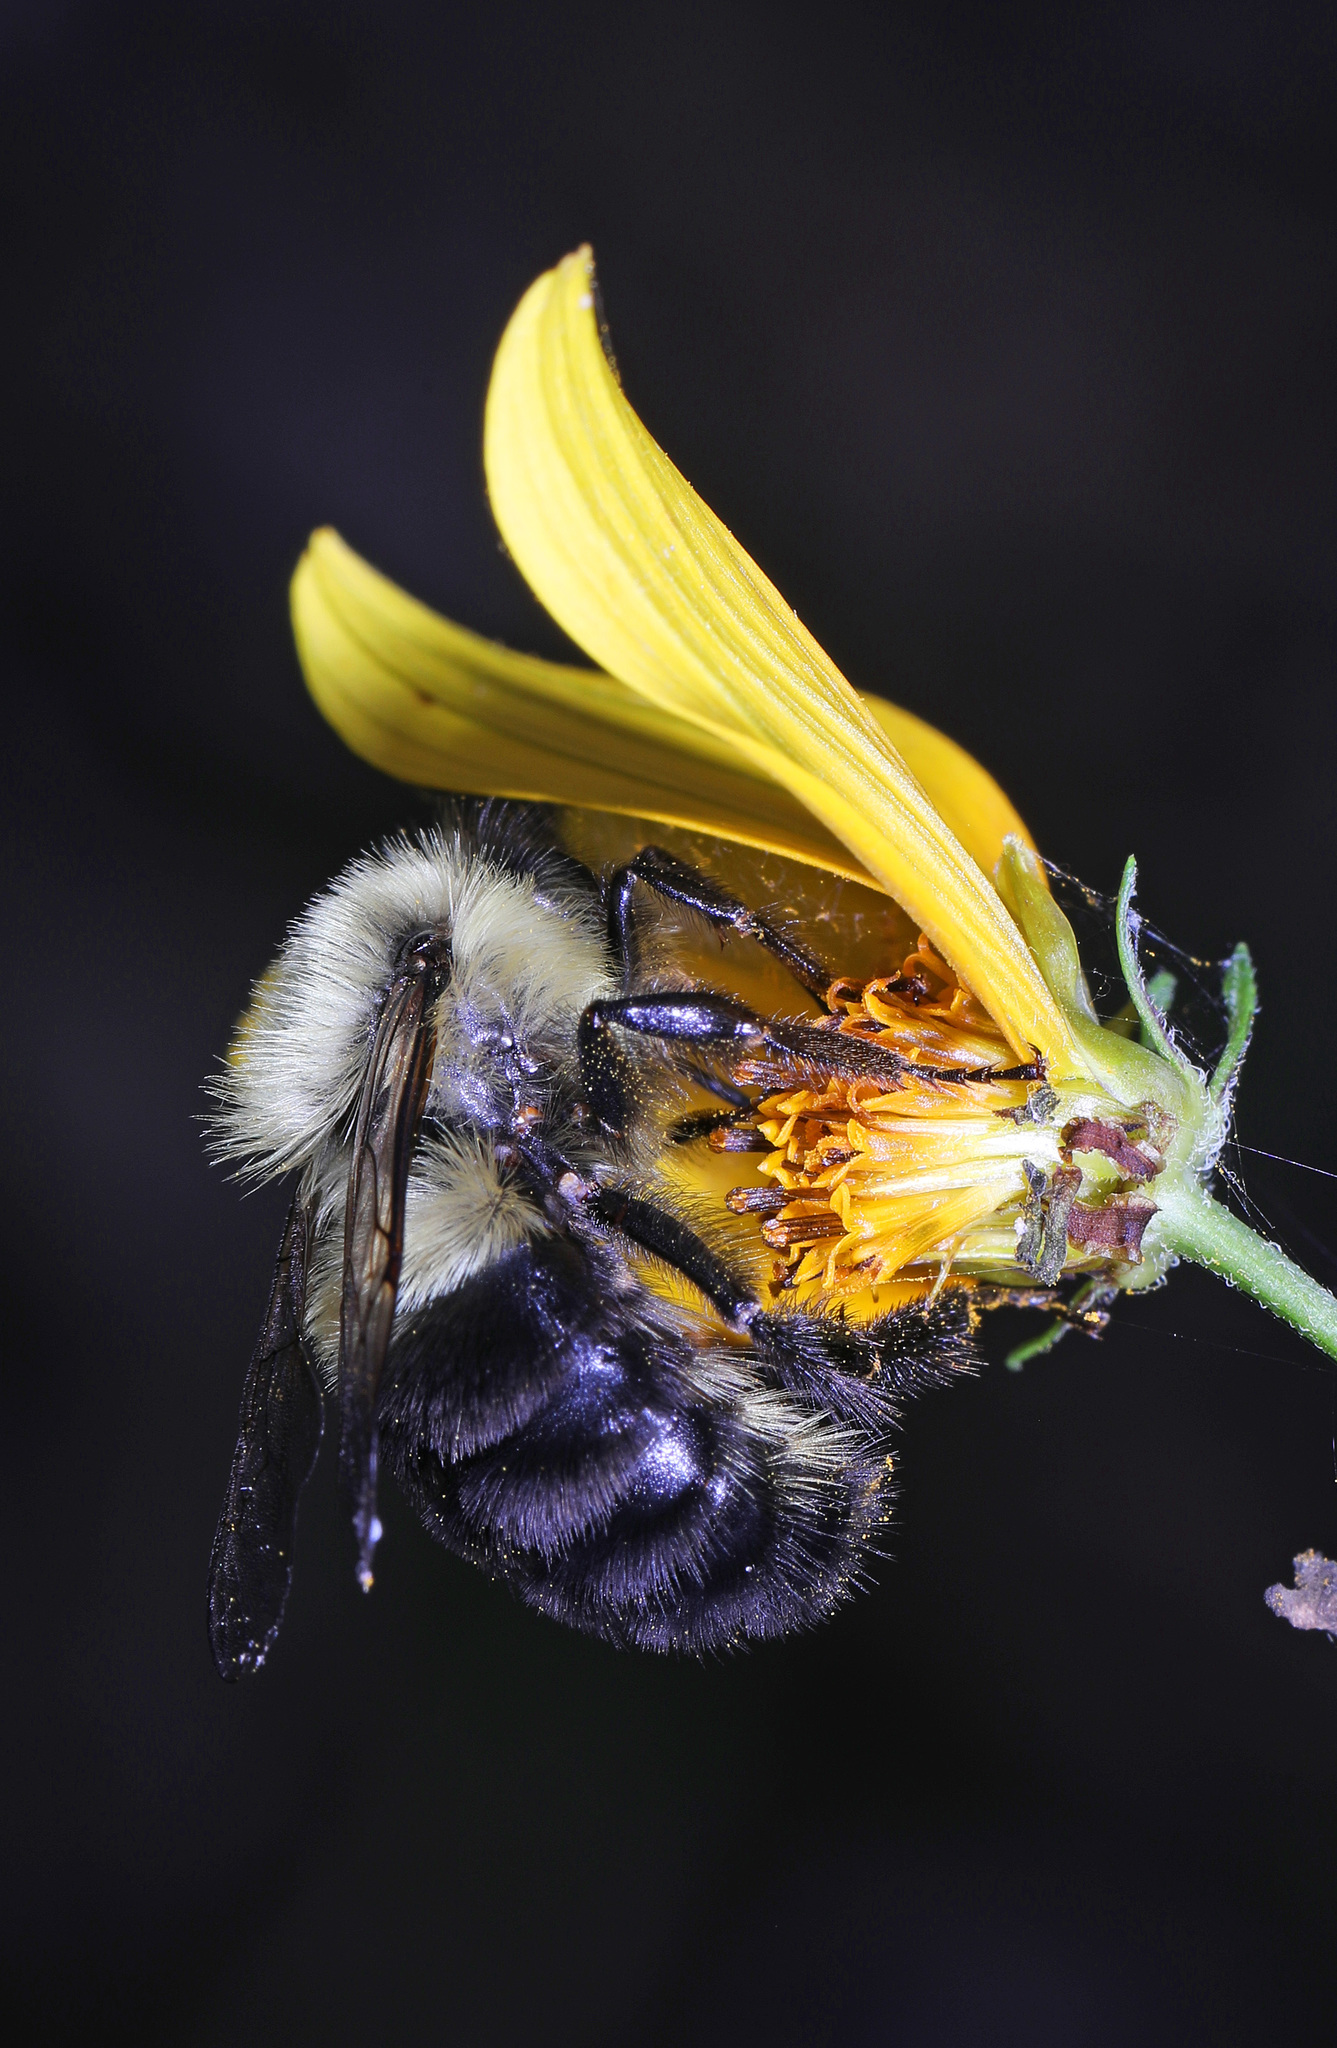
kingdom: Animalia
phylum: Arthropoda
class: Insecta
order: Hymenoptera
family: Apidae
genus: Bombus
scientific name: Bombus impatiens
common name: Common eastern bumble bee
